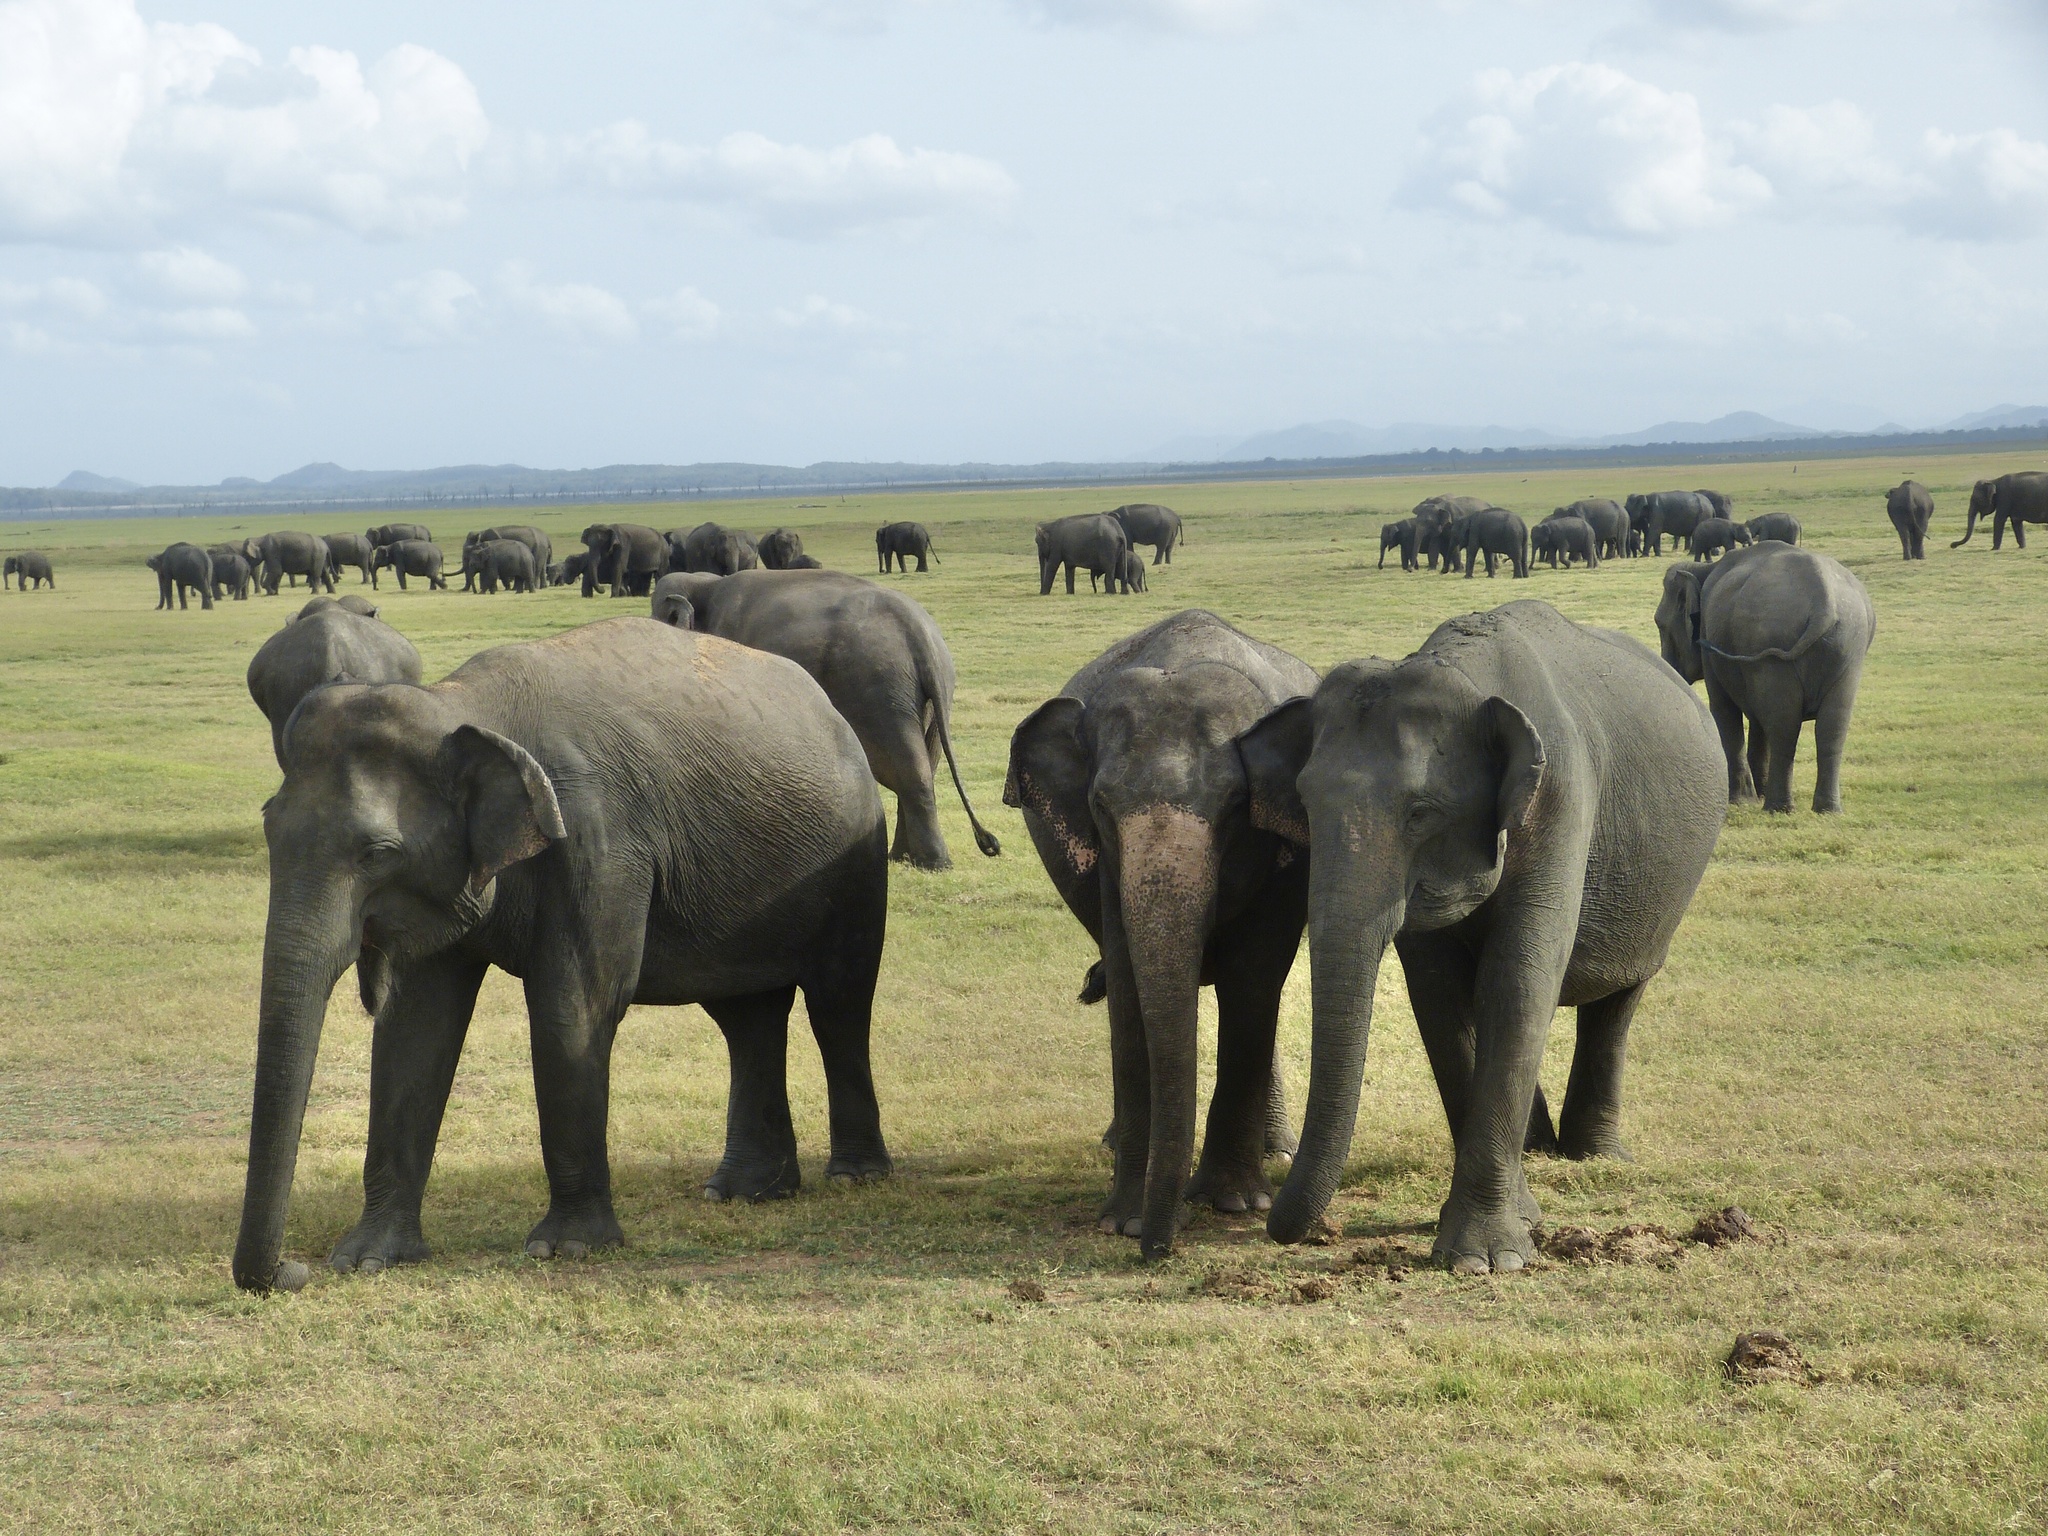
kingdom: Animalia
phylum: Chordata
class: Mammalia
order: Proboscidea
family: Elephantidae
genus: Elephas
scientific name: Elephas maximus
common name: Asian elephant
